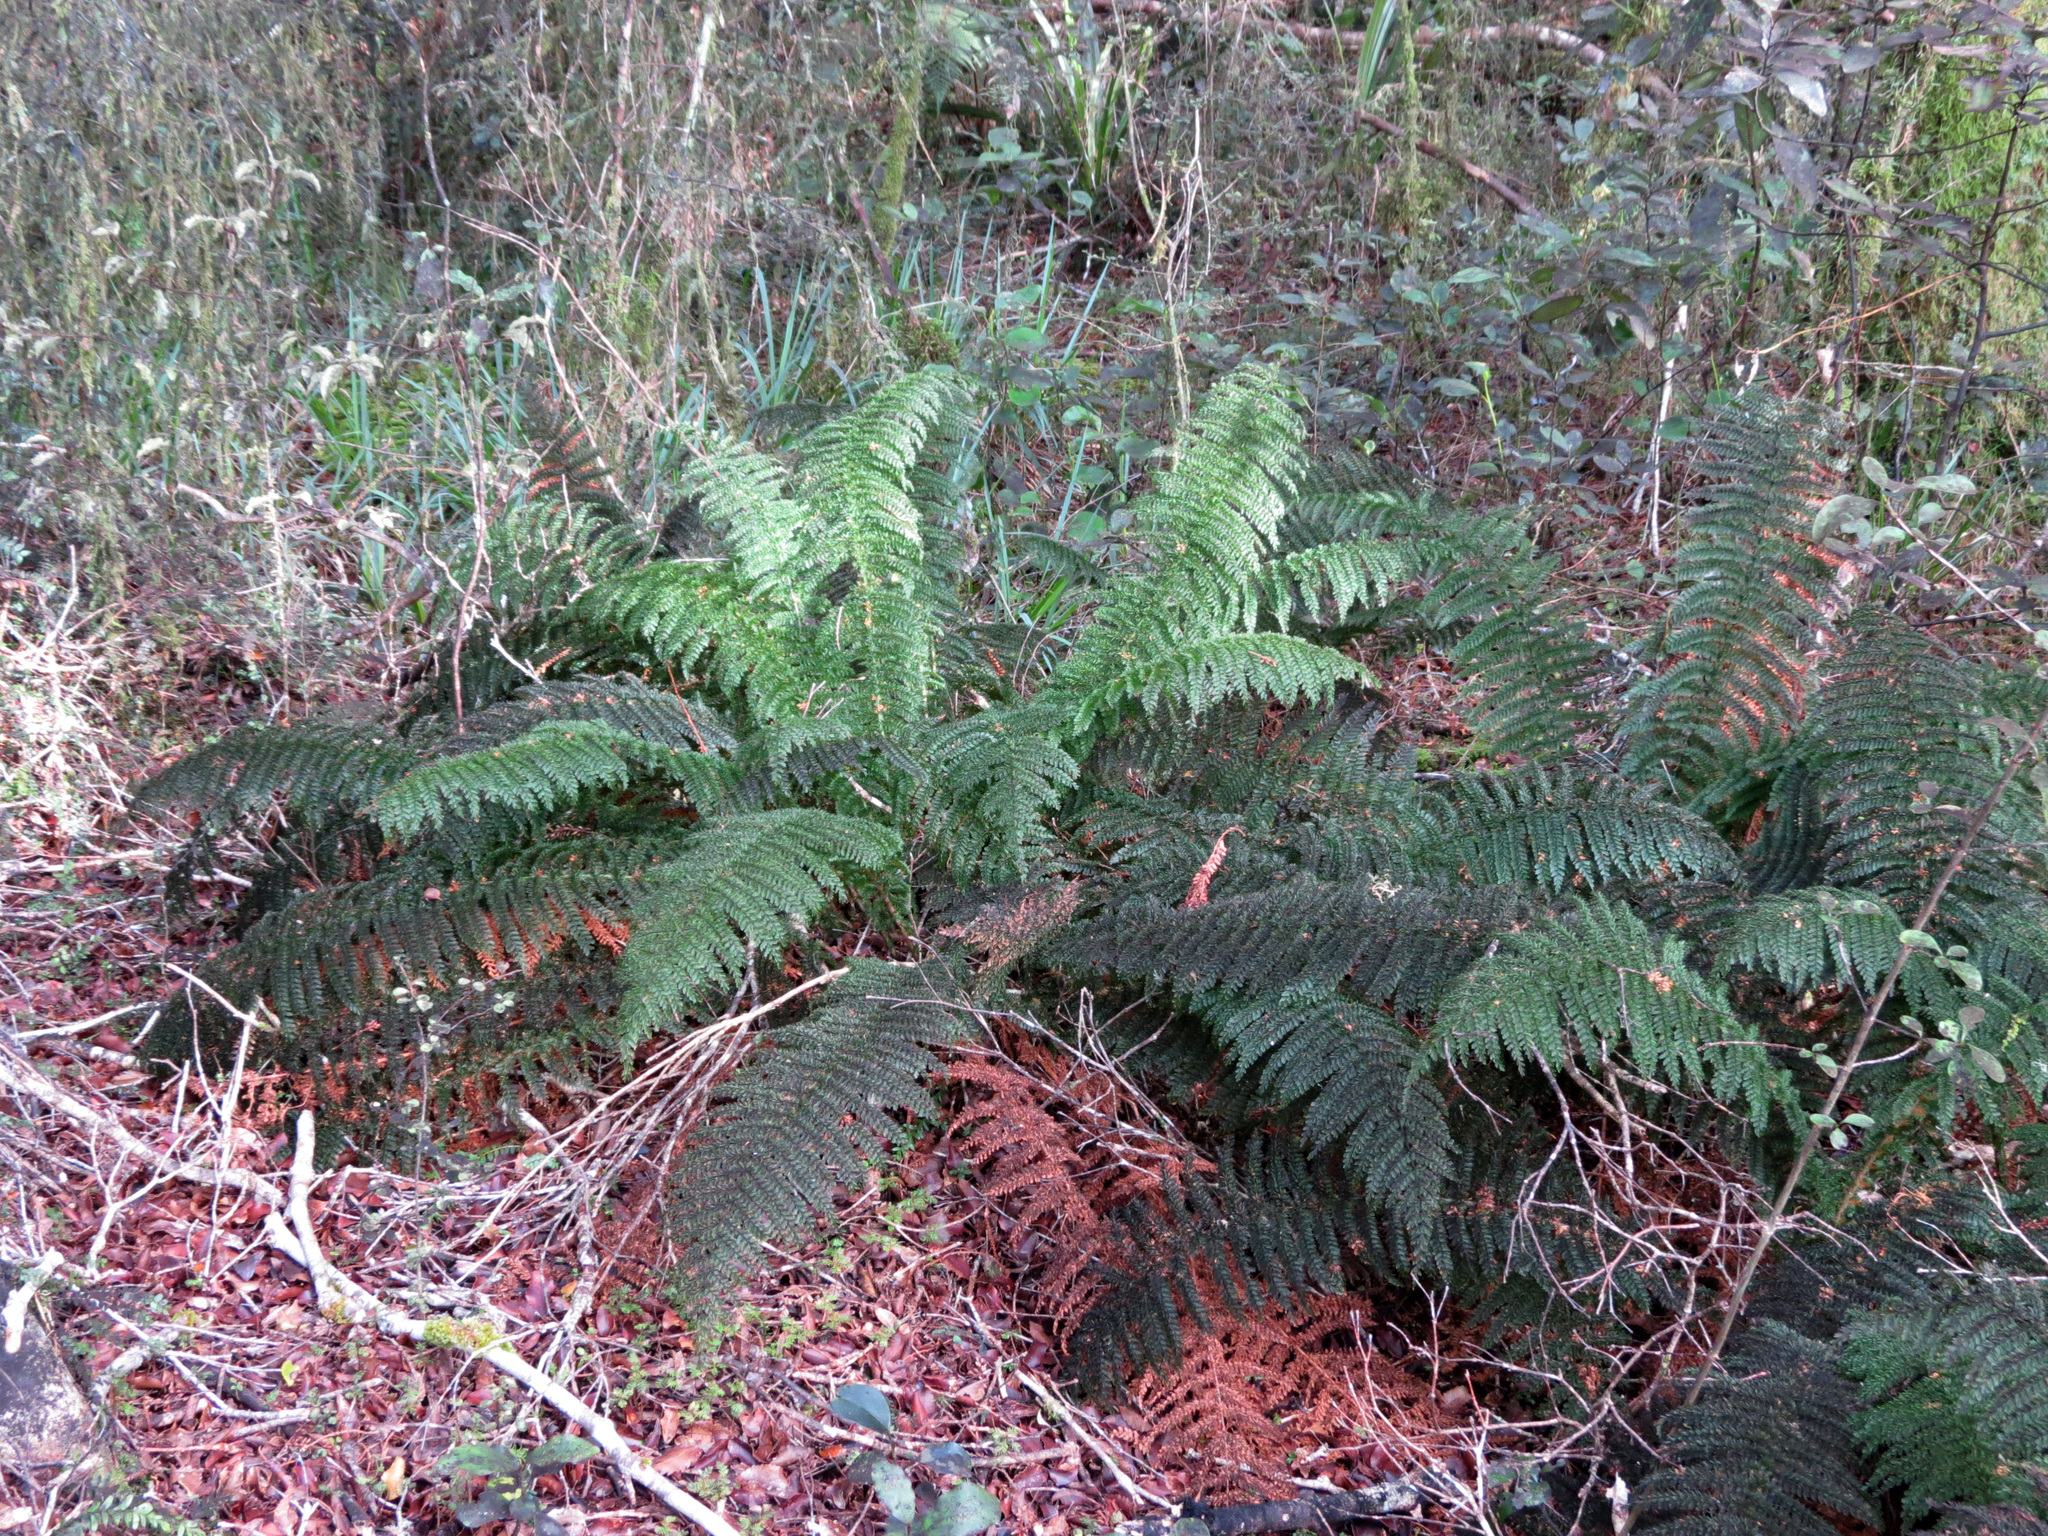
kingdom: Plantae
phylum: Tracheophyta
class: Polypodiopsida
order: Osmundales
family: Osmundaceae
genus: Leptopteris
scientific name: Leptopteris superba
